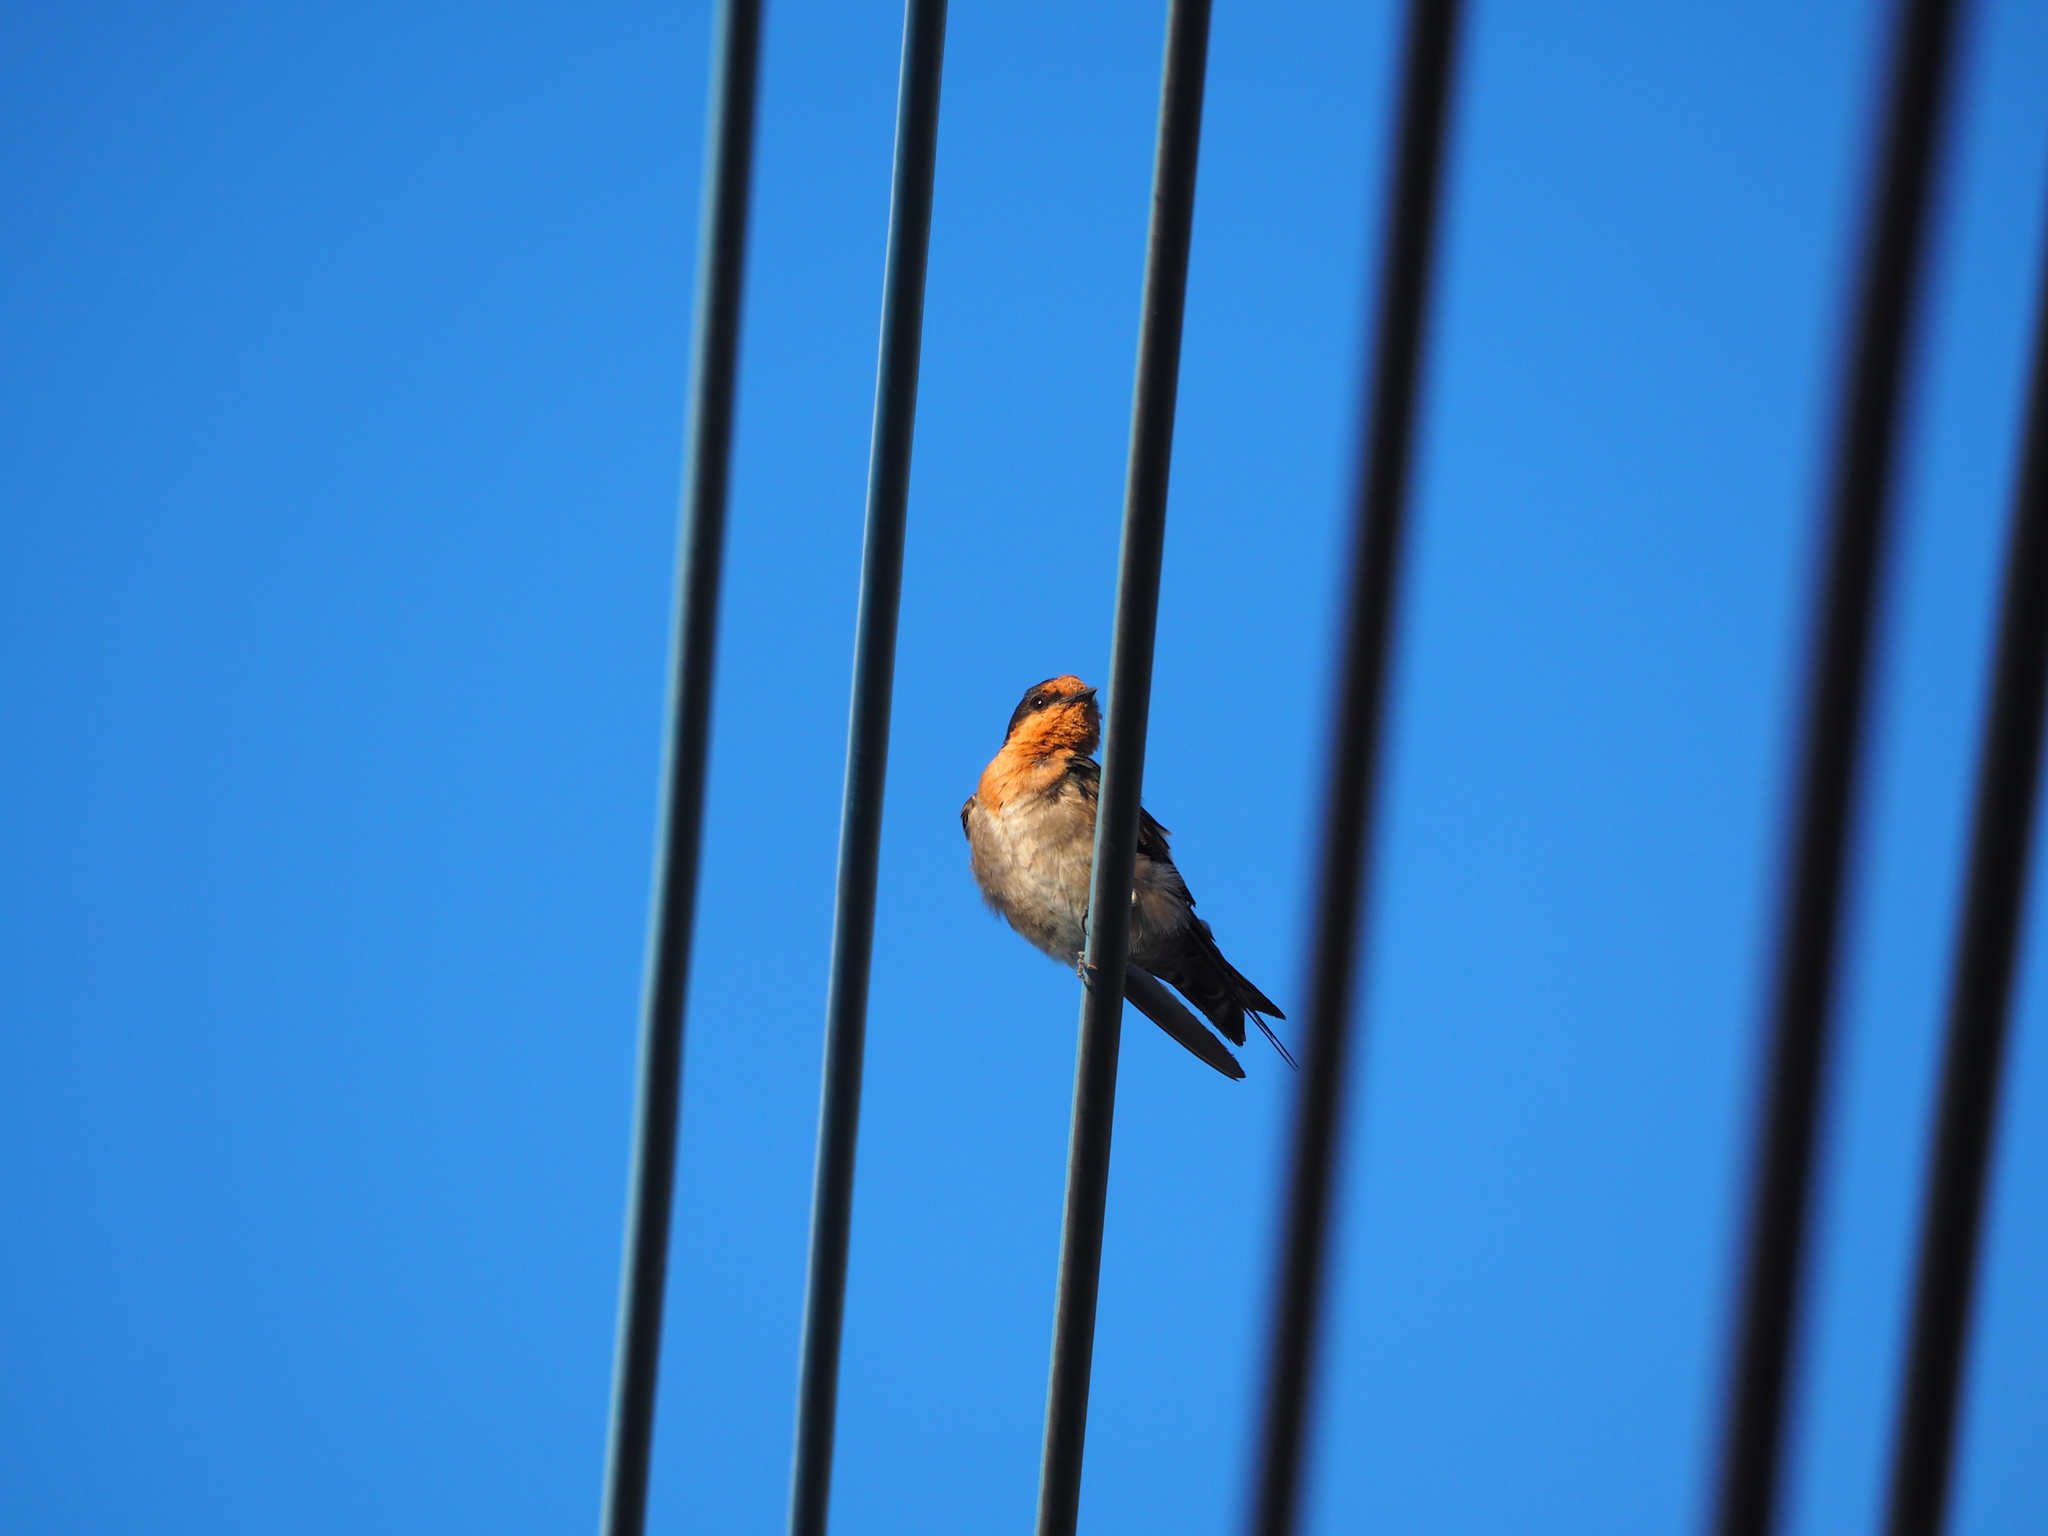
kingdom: Animalia
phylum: Chordata
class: Aves
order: Passeriformes
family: Hirundinidae
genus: Hirundo
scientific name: Hirundo tahitica
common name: Pacific swallow
